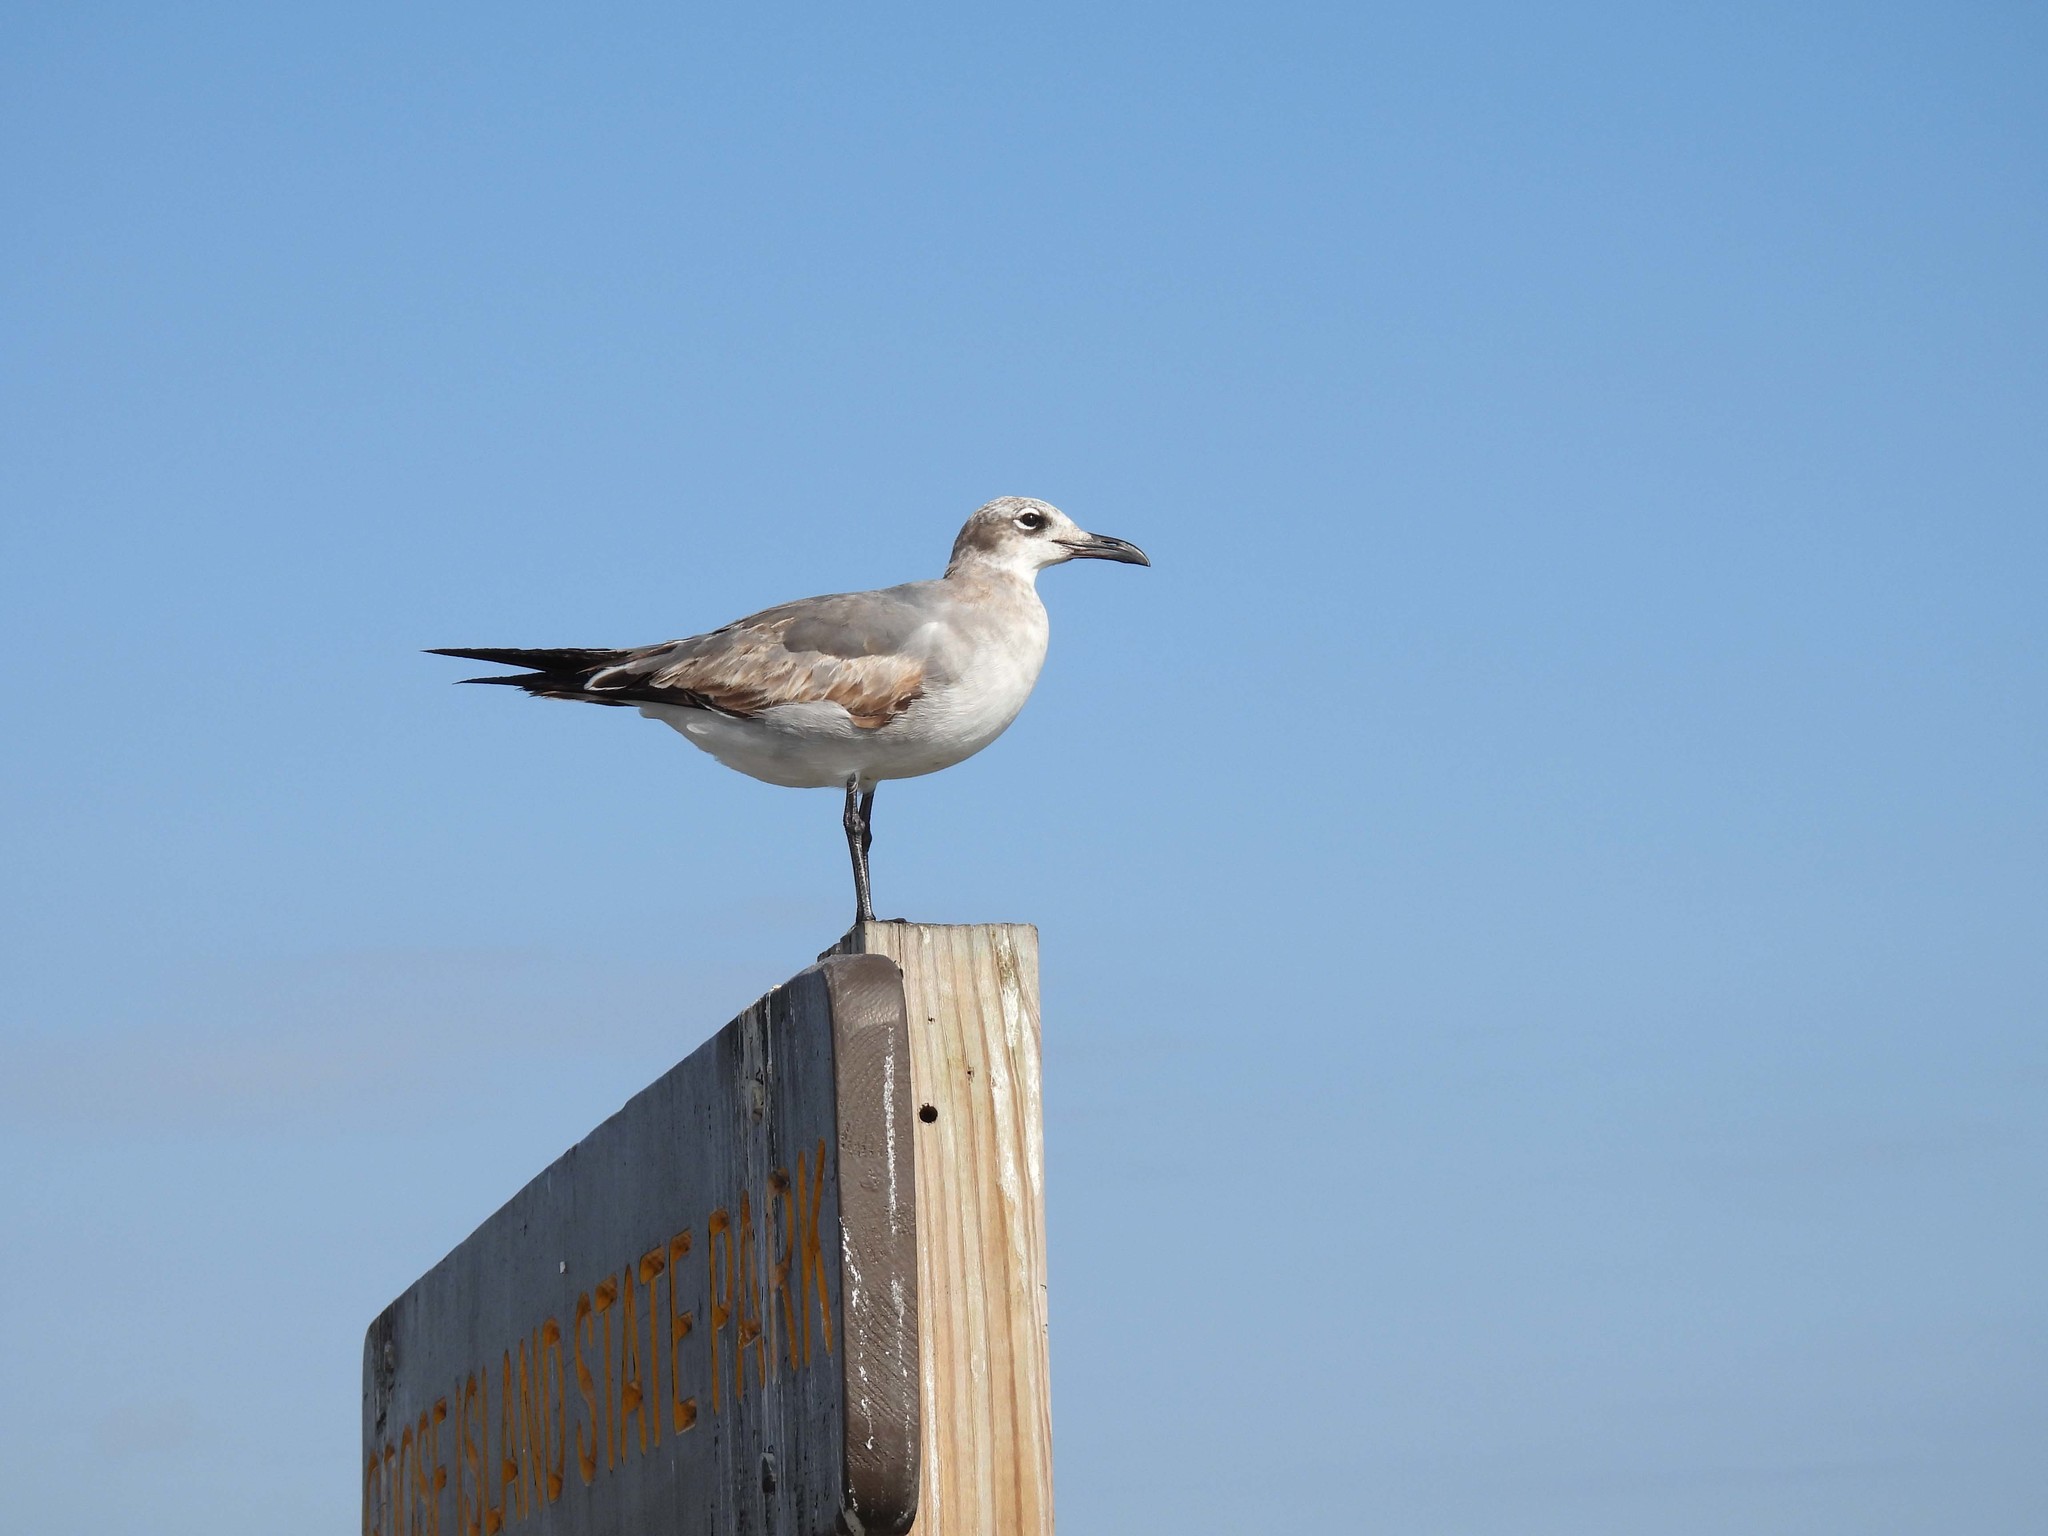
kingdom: Animalia
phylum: Chordata
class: Aves
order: Charadriiformes
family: Laridae
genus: Leucophaeus
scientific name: Leucophaeus atricilla
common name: Laughing gull
